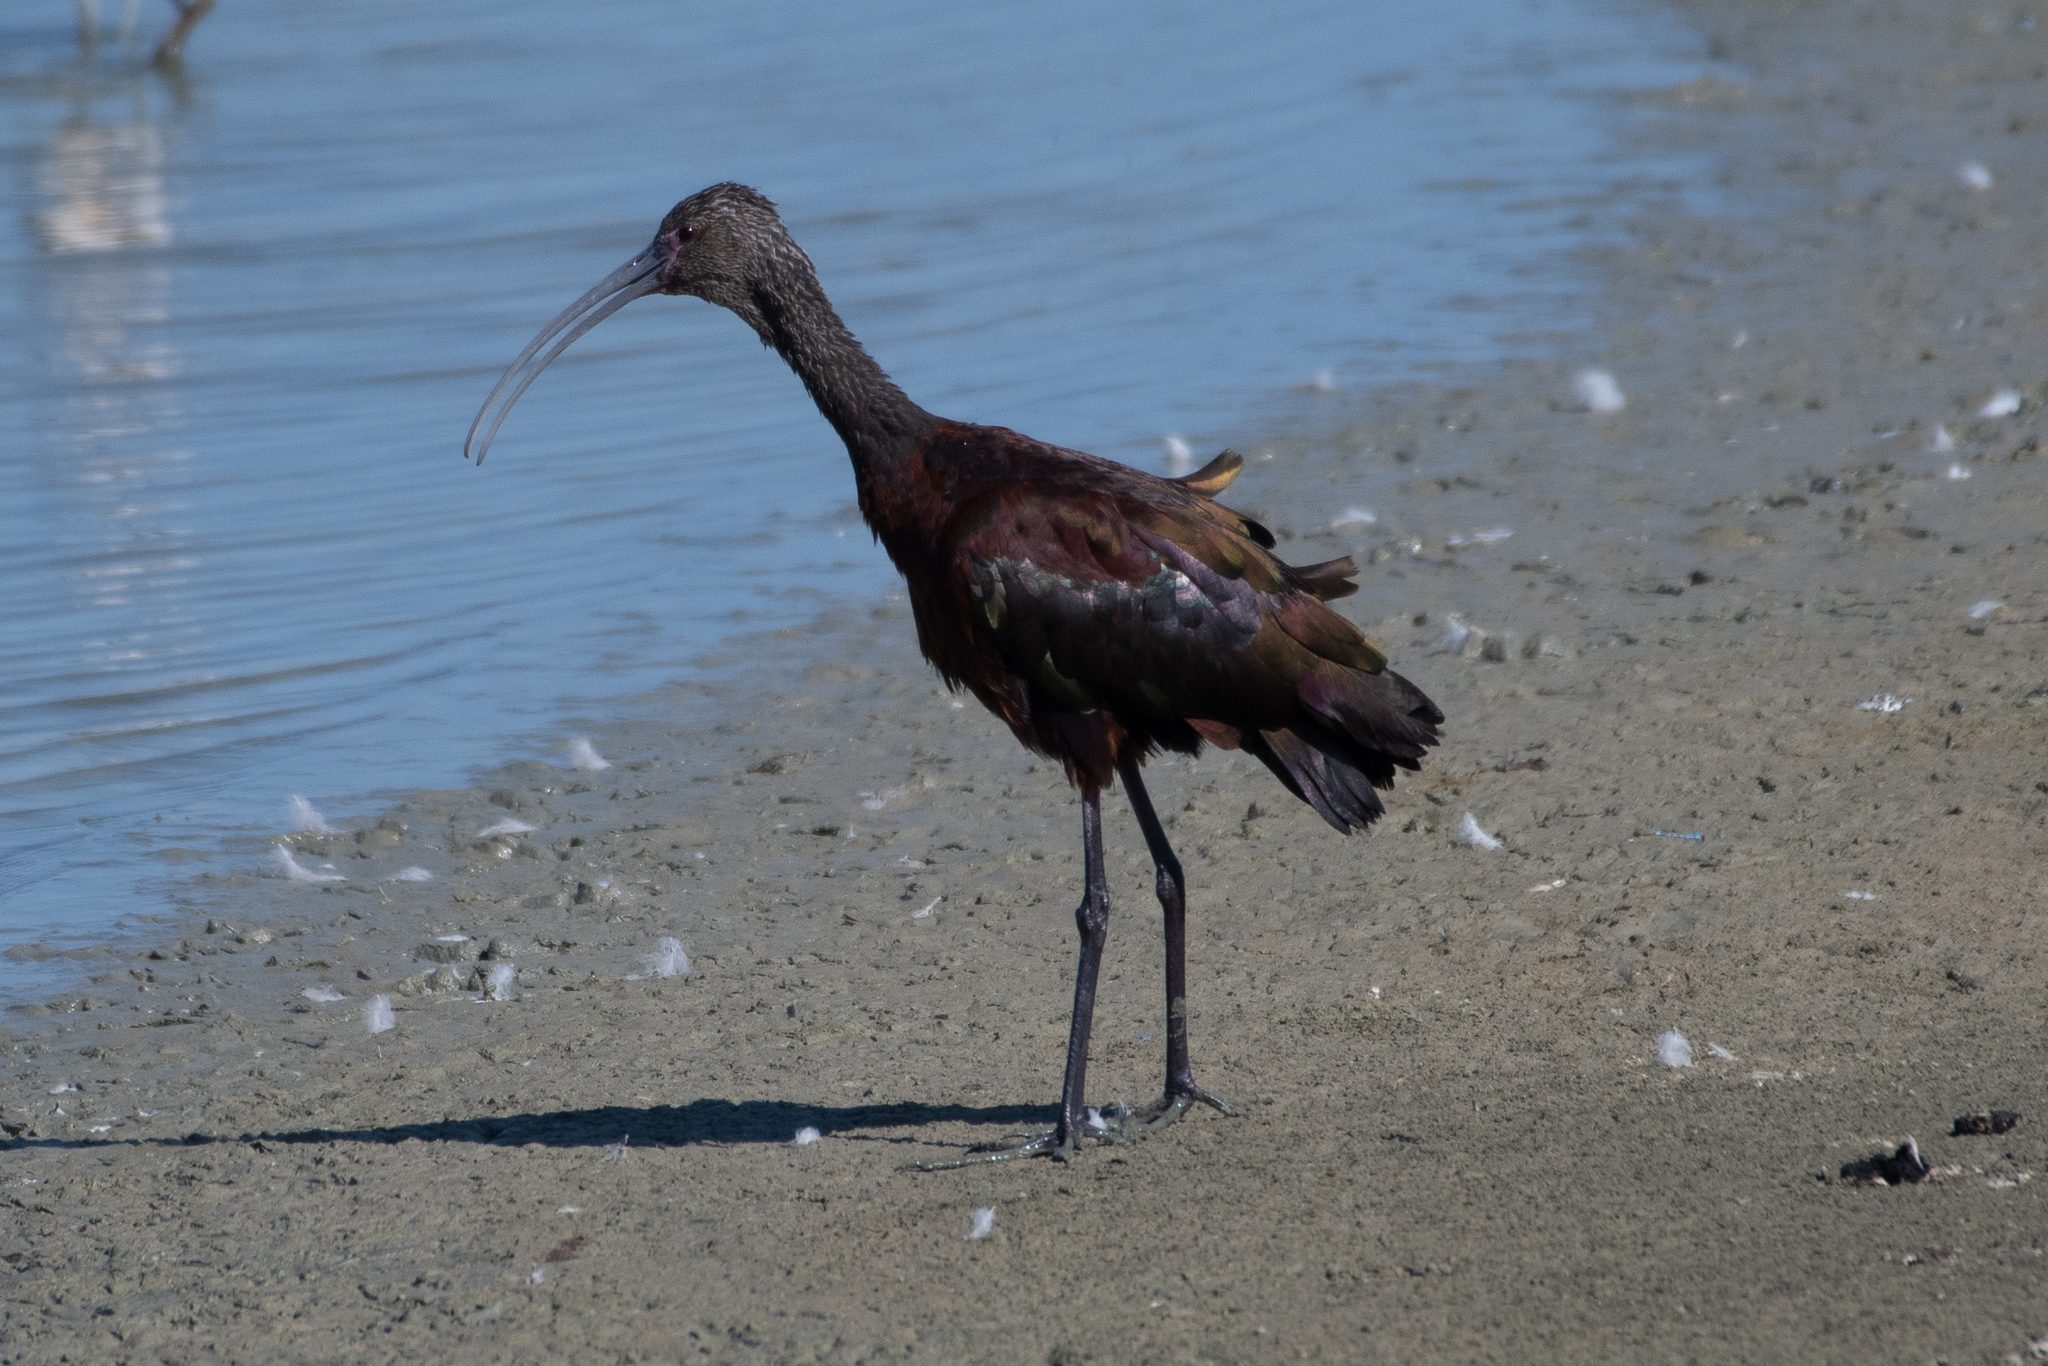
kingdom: Animalia
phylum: Chordata
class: Aves
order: Pelecaniformes
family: Threskiornithidae
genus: Plegadis
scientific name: Plegadis chihi
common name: White-faced ibis
